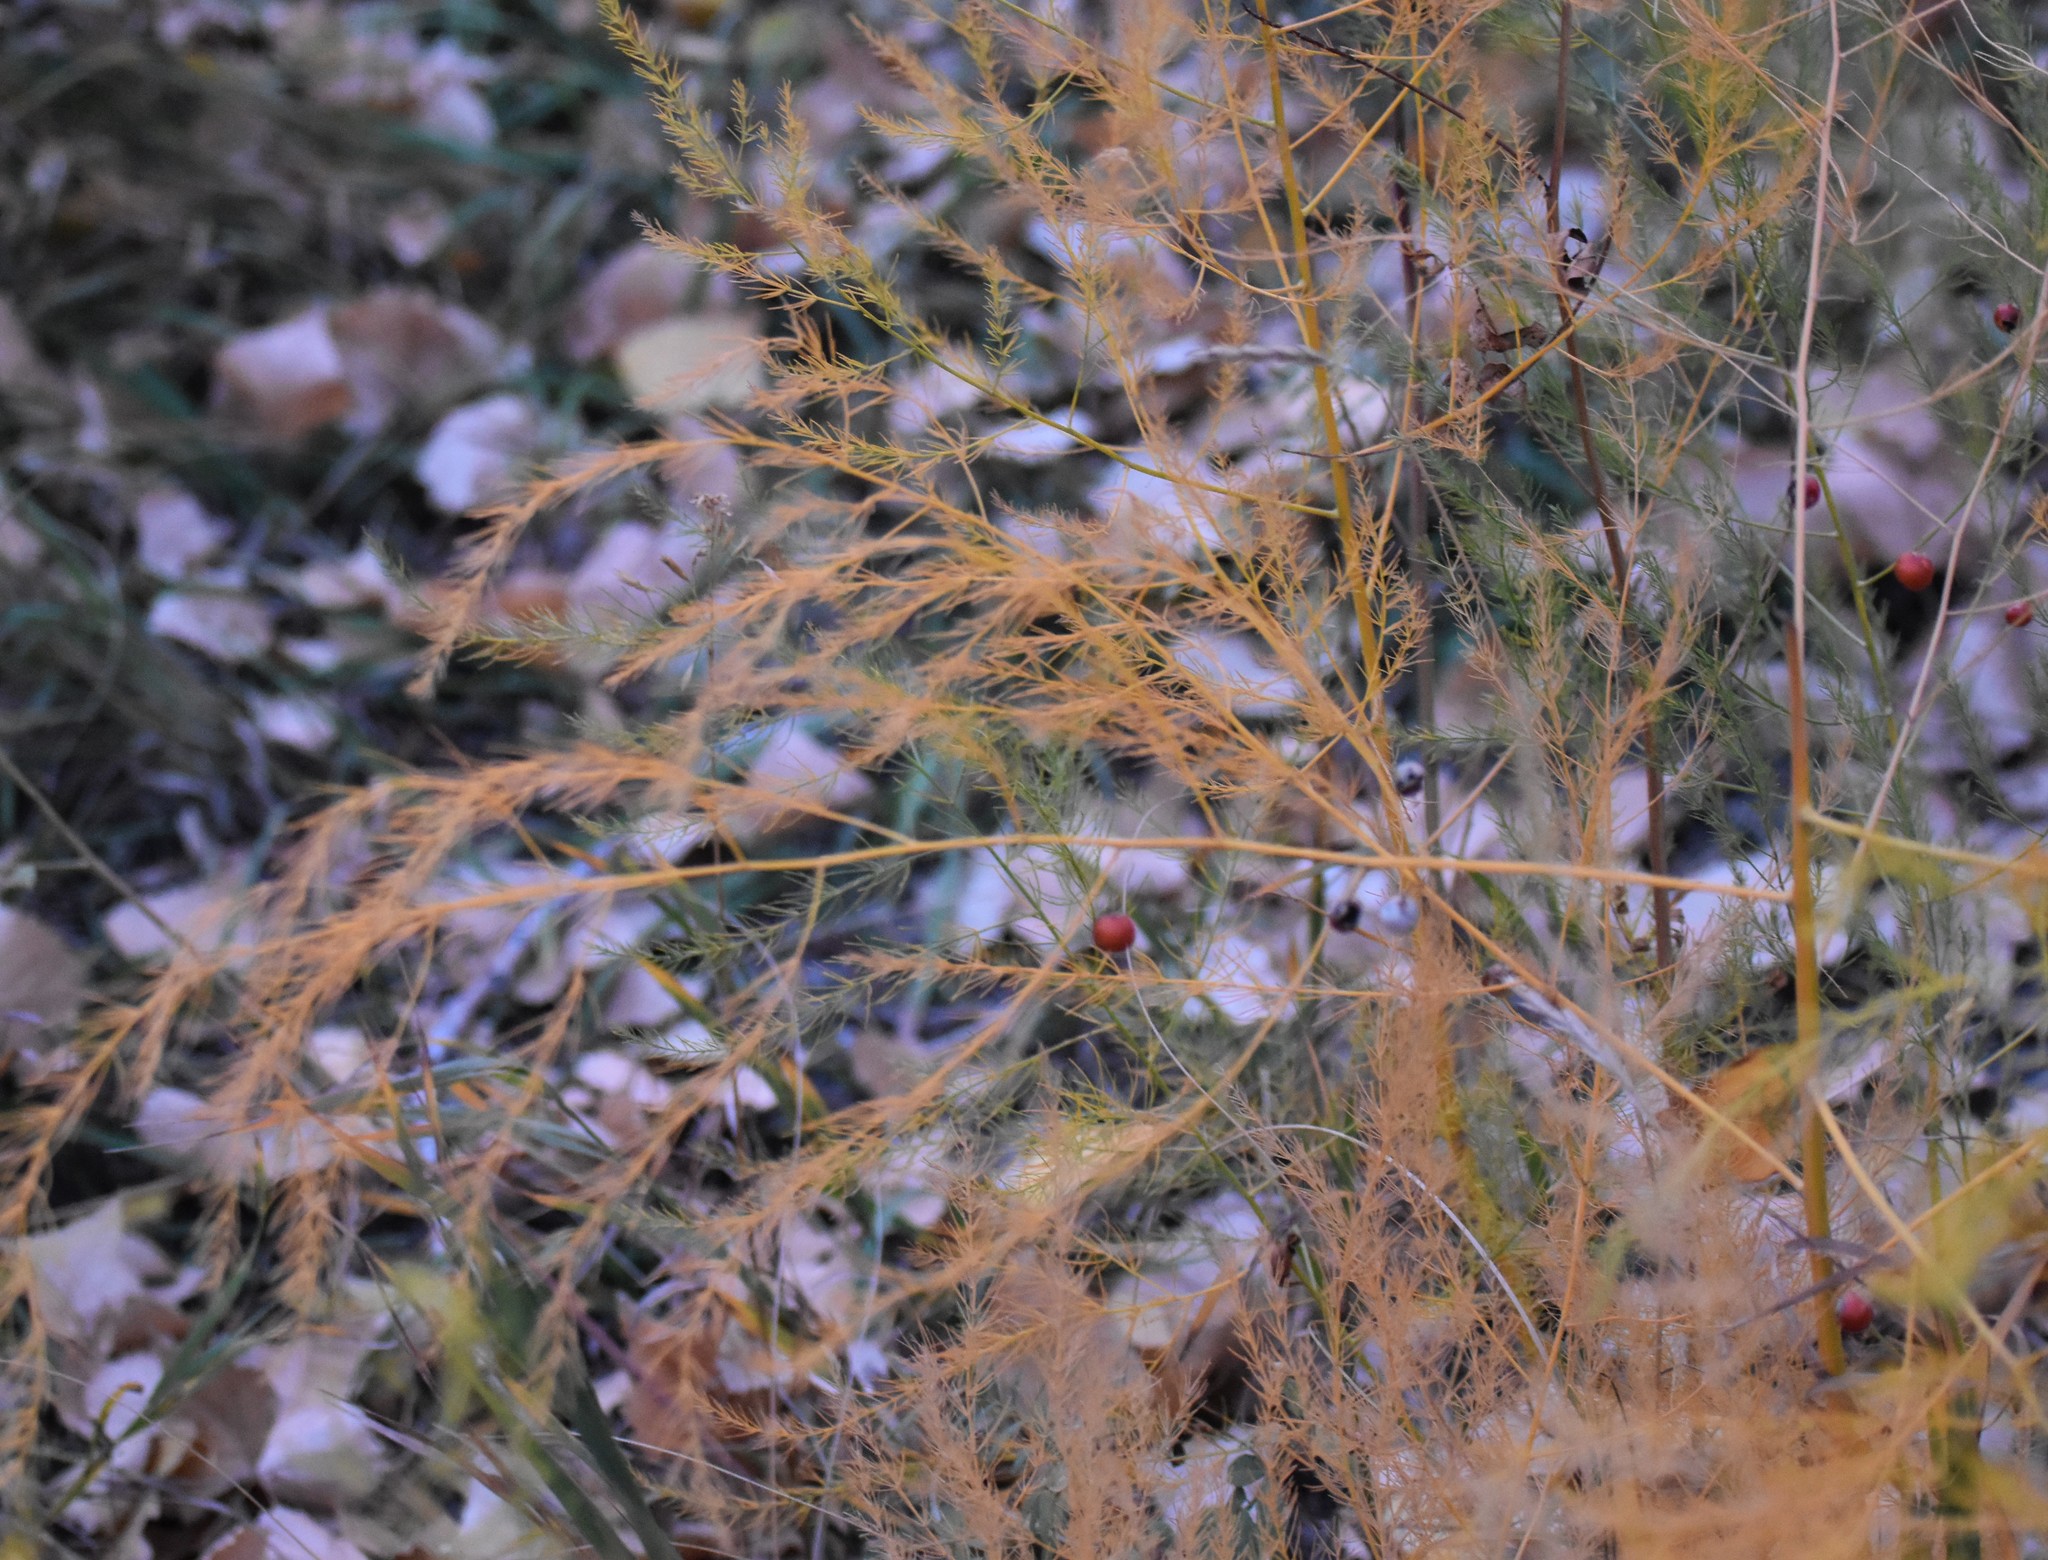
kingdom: Plantae
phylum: Tracheophyta
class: Liliopsida
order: Asparagales
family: Asparagaceae
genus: Asparagus
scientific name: Asparagus officinalis
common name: Garden asparagus
